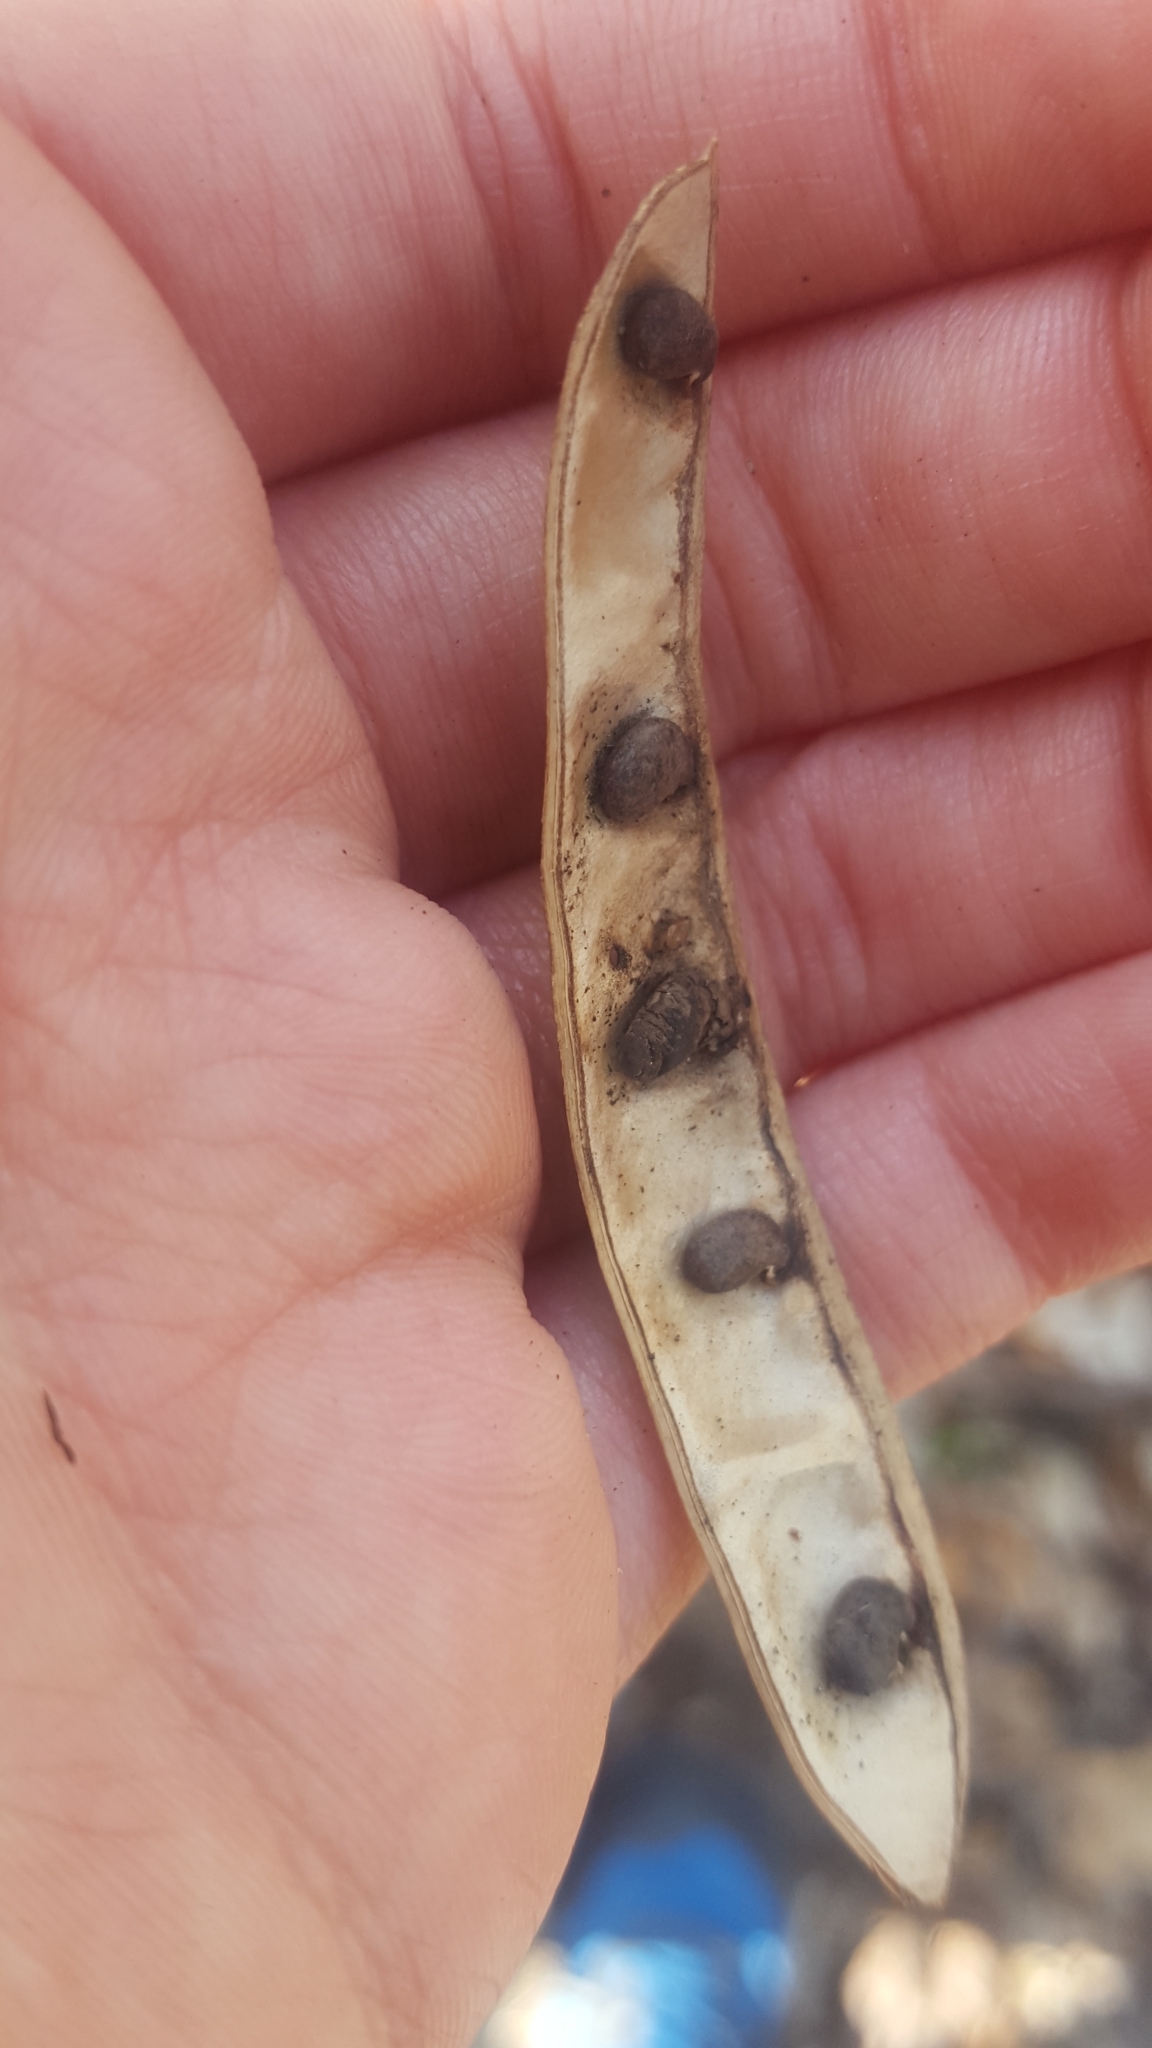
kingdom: Plantae
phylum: Tracheophyta
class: Magnoliopsida
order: Fabales
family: Fabaceae
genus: Robinia
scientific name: Robinia pseudoacacia
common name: Black locust
